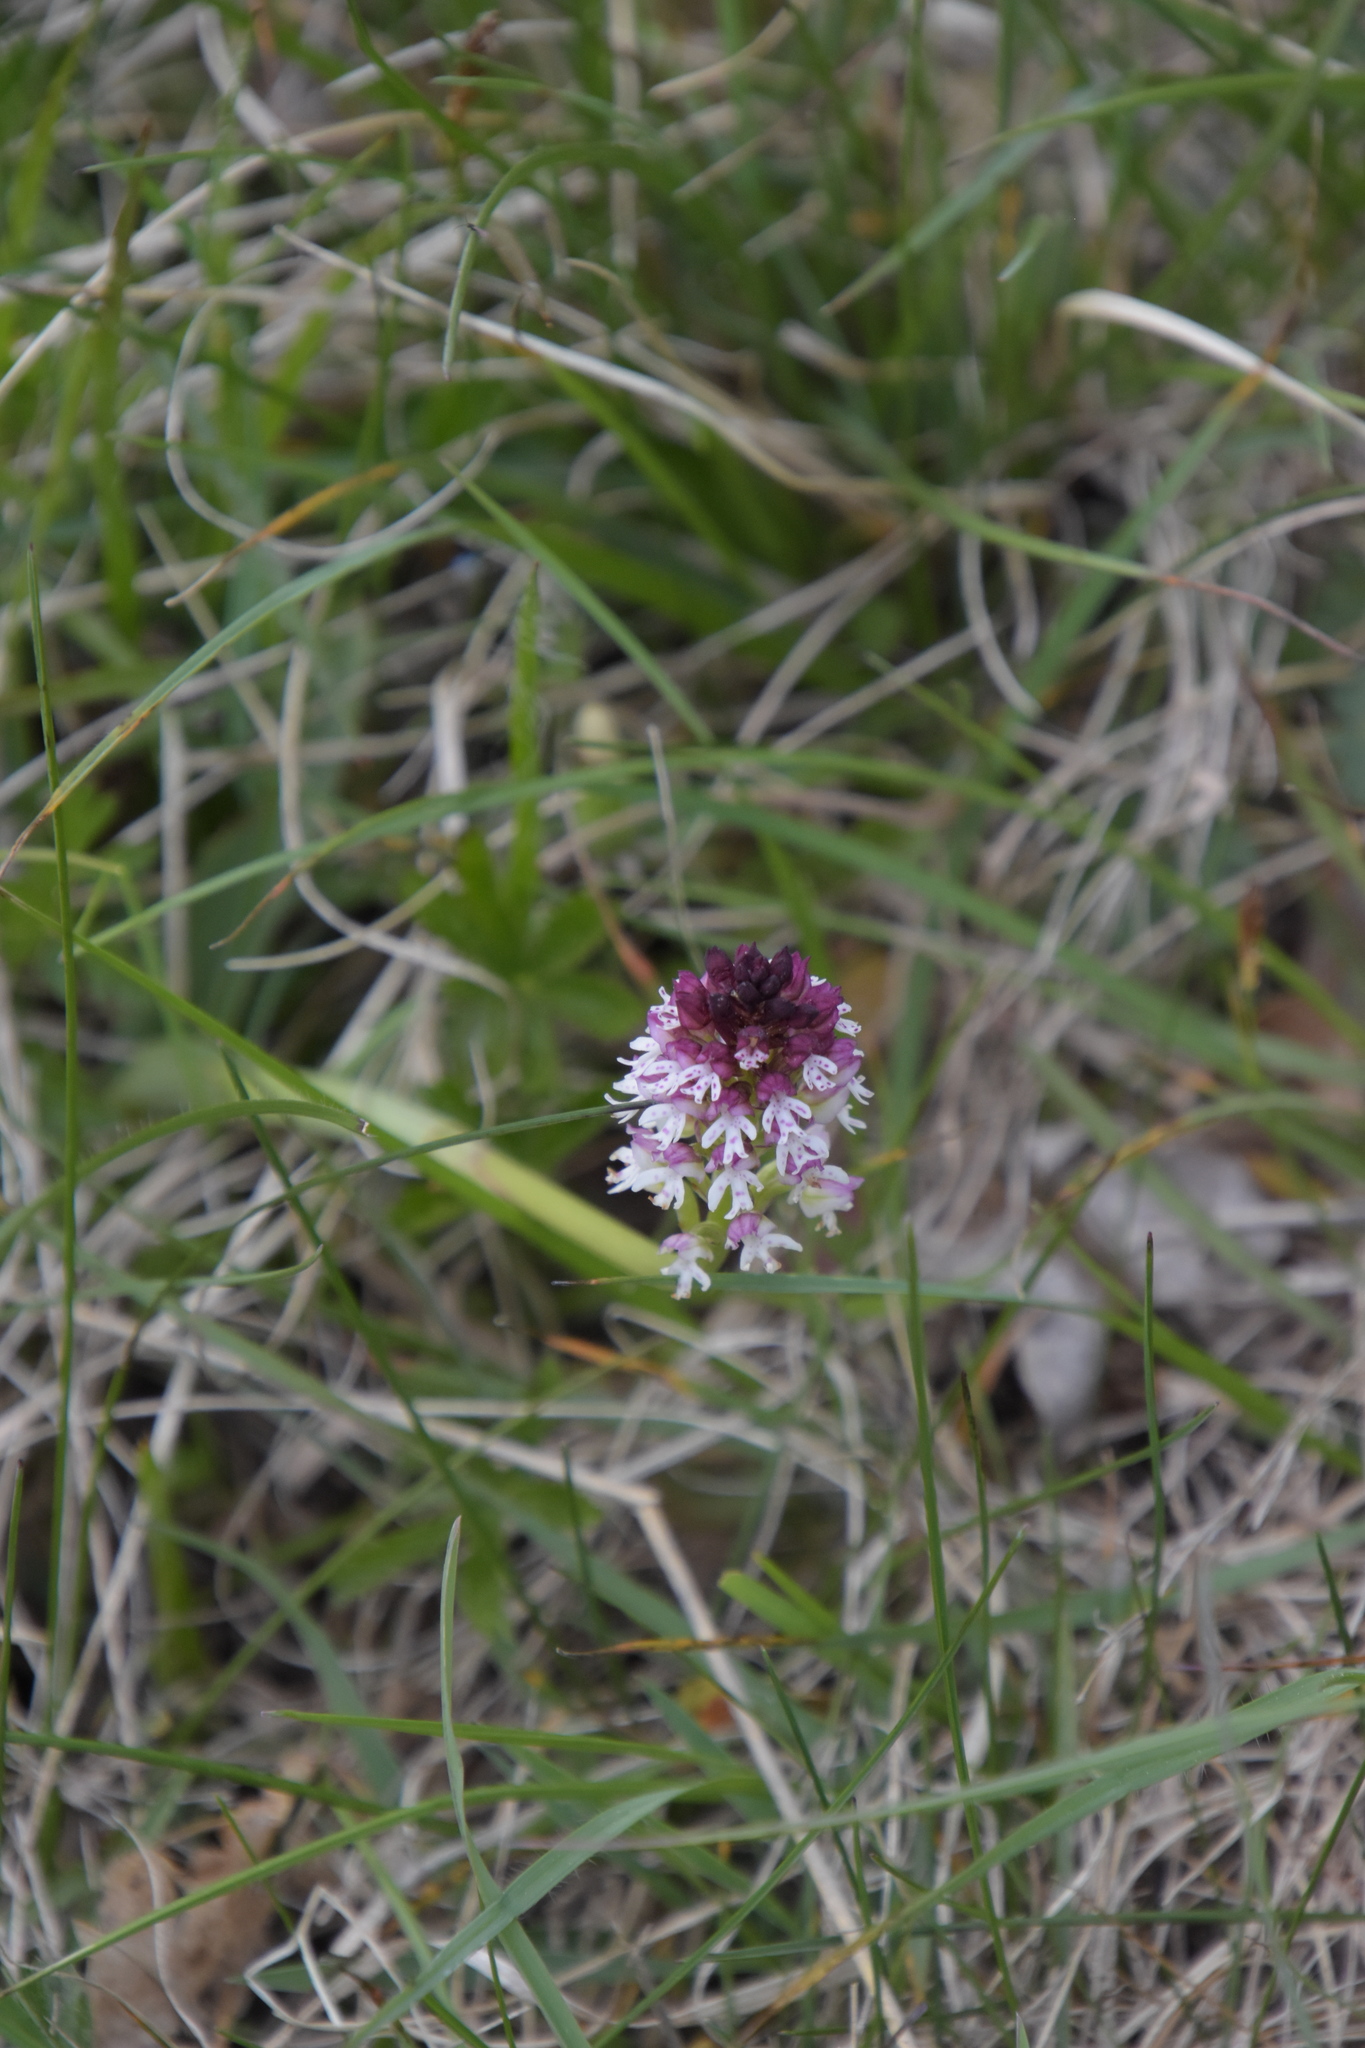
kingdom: Plantae
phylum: Tracheophyta
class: Liliopsida
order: Asparagales
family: Orchidaceae
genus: Neotinea
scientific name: Neotinea ustulata
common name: Burnt orchid
